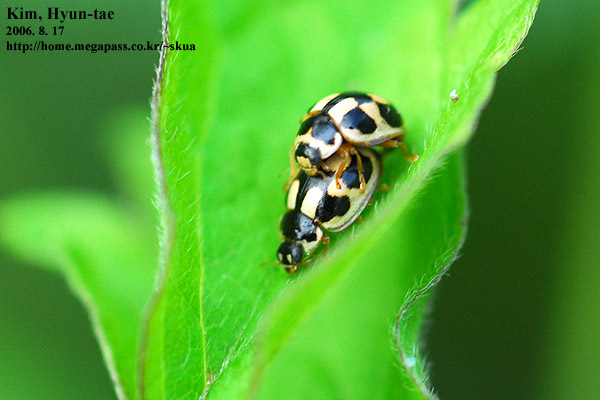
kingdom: Animalia
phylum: Arthropoda
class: Insecta
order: Coleoptera
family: Coccinellidae
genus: Propylea
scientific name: Propylea japonica
